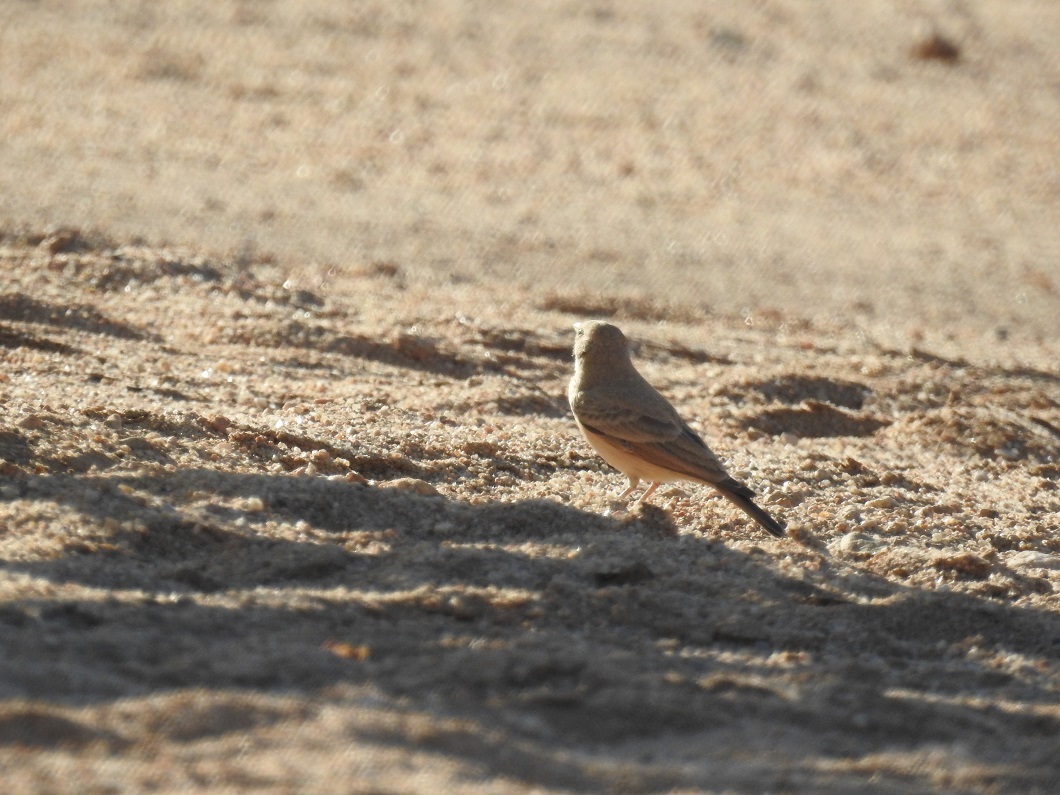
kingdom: Animalia
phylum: Chordata
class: Aves
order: Passeriformes
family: Alaudidae
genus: Ammomanes
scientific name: Ammomanes deserti
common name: Desert lark
